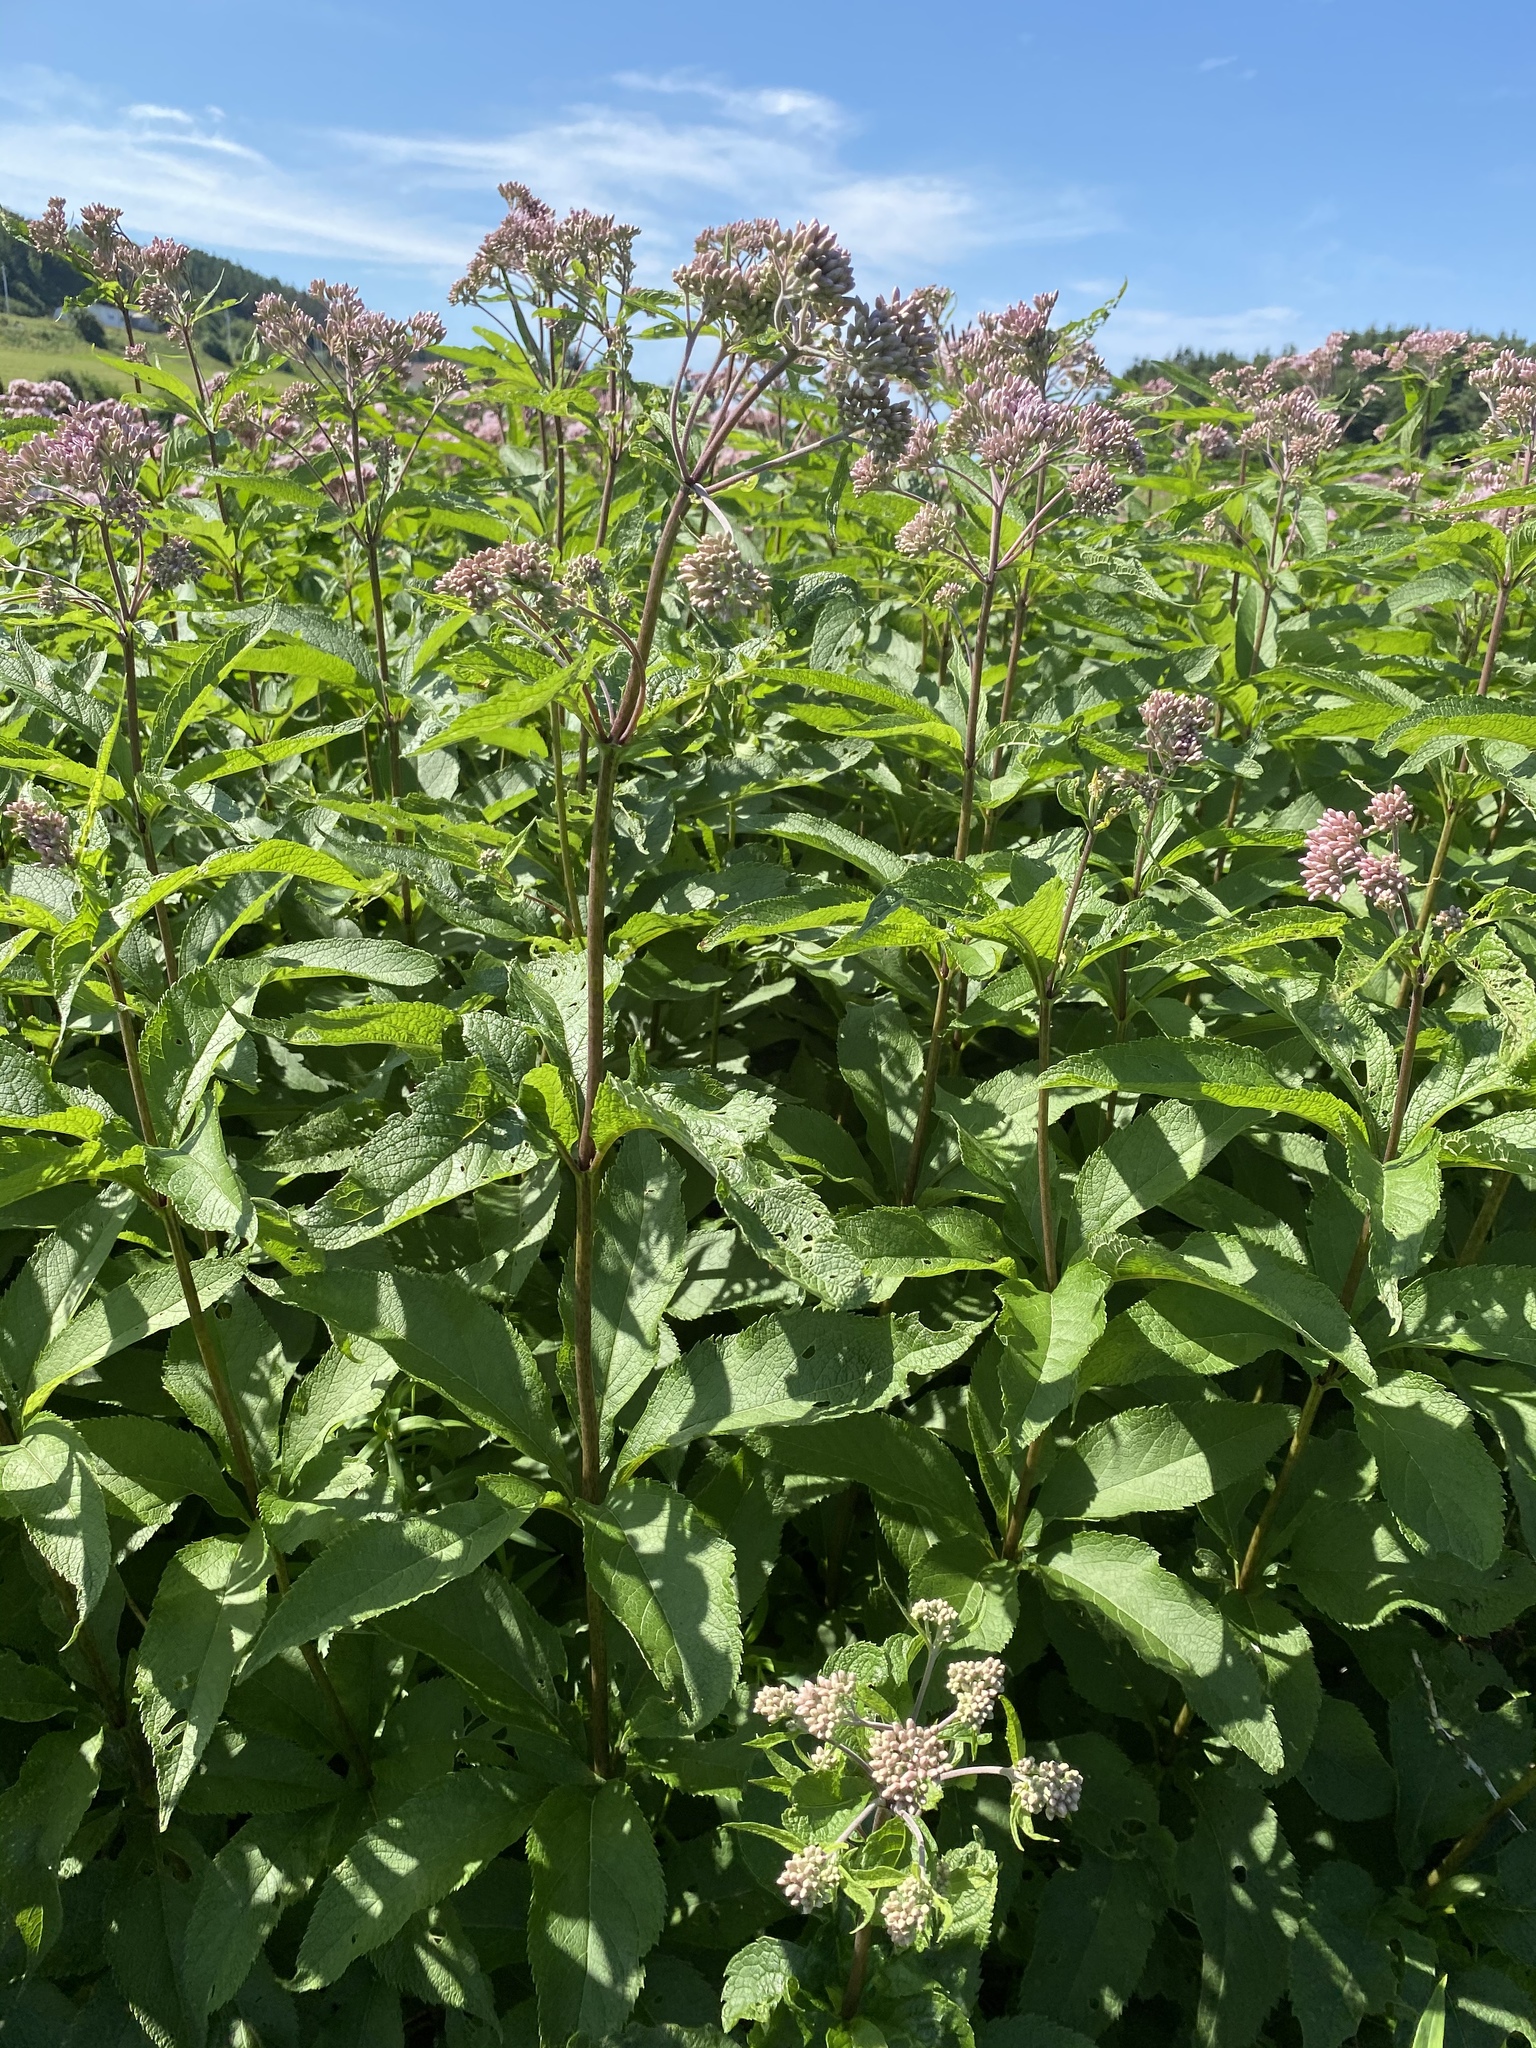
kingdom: Plantae
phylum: Tracheophyta
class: Magnoliopsida
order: Asterales
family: Asteraceae
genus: Eutrochium
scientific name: Eutrochium maculatum
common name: Spotted joe pye weed
